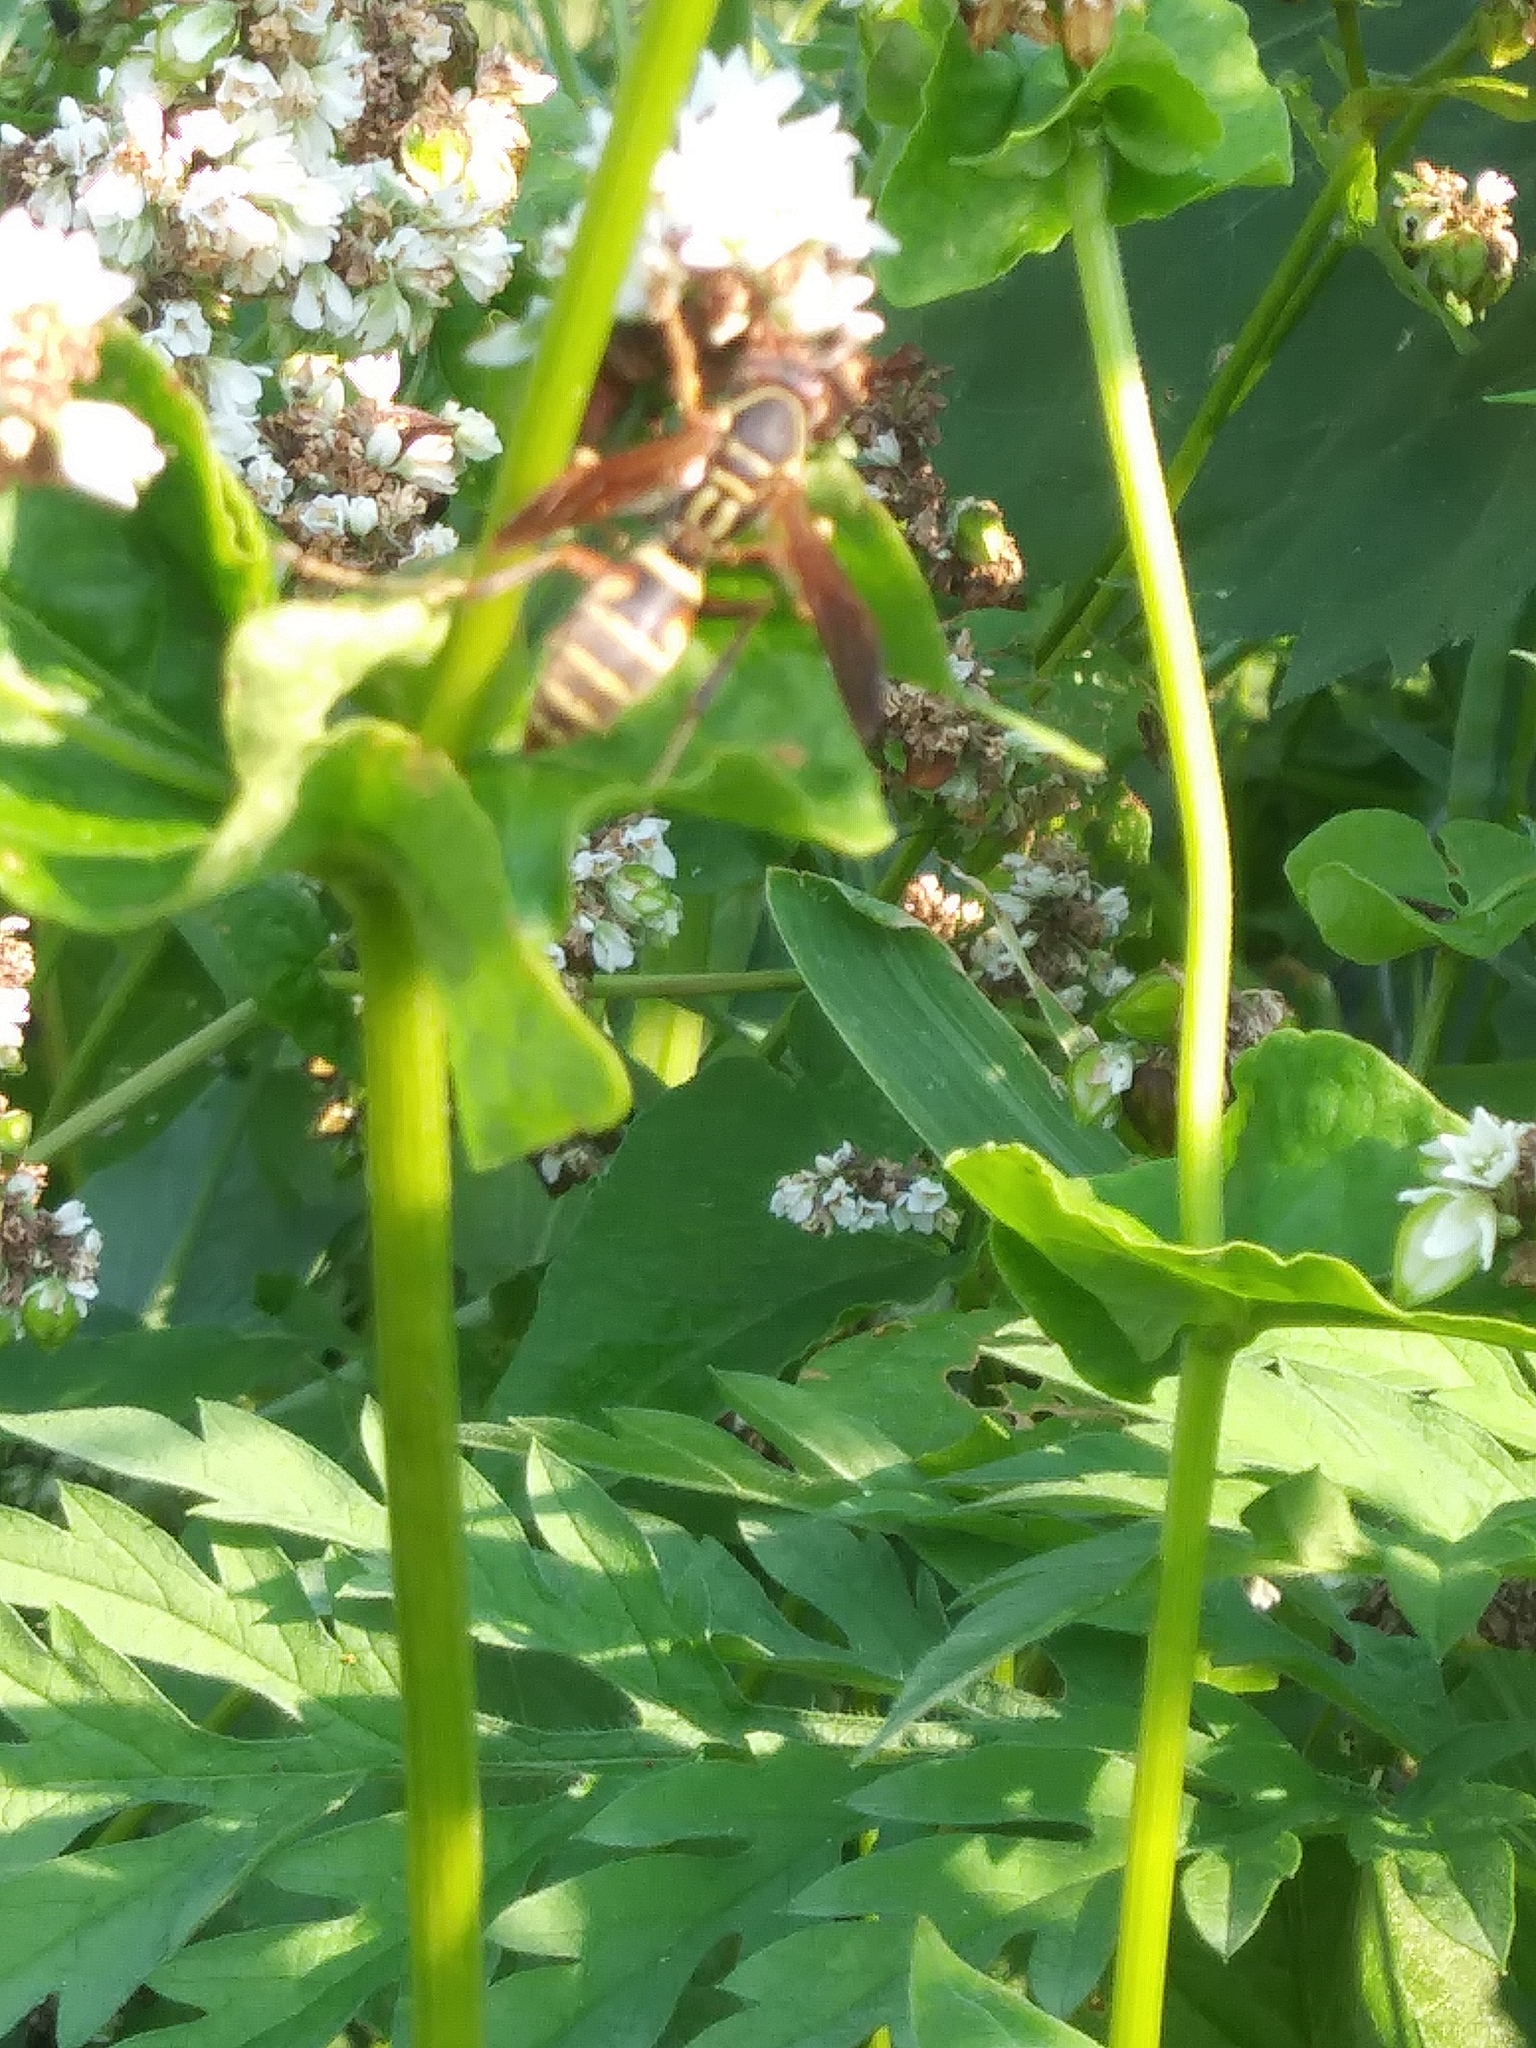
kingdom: Animalia
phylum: Arthropoda
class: Insecta
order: Hymenoptera
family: Eumenidae
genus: Polistes
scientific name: Polistes fuscatus
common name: Dark paper wasp
